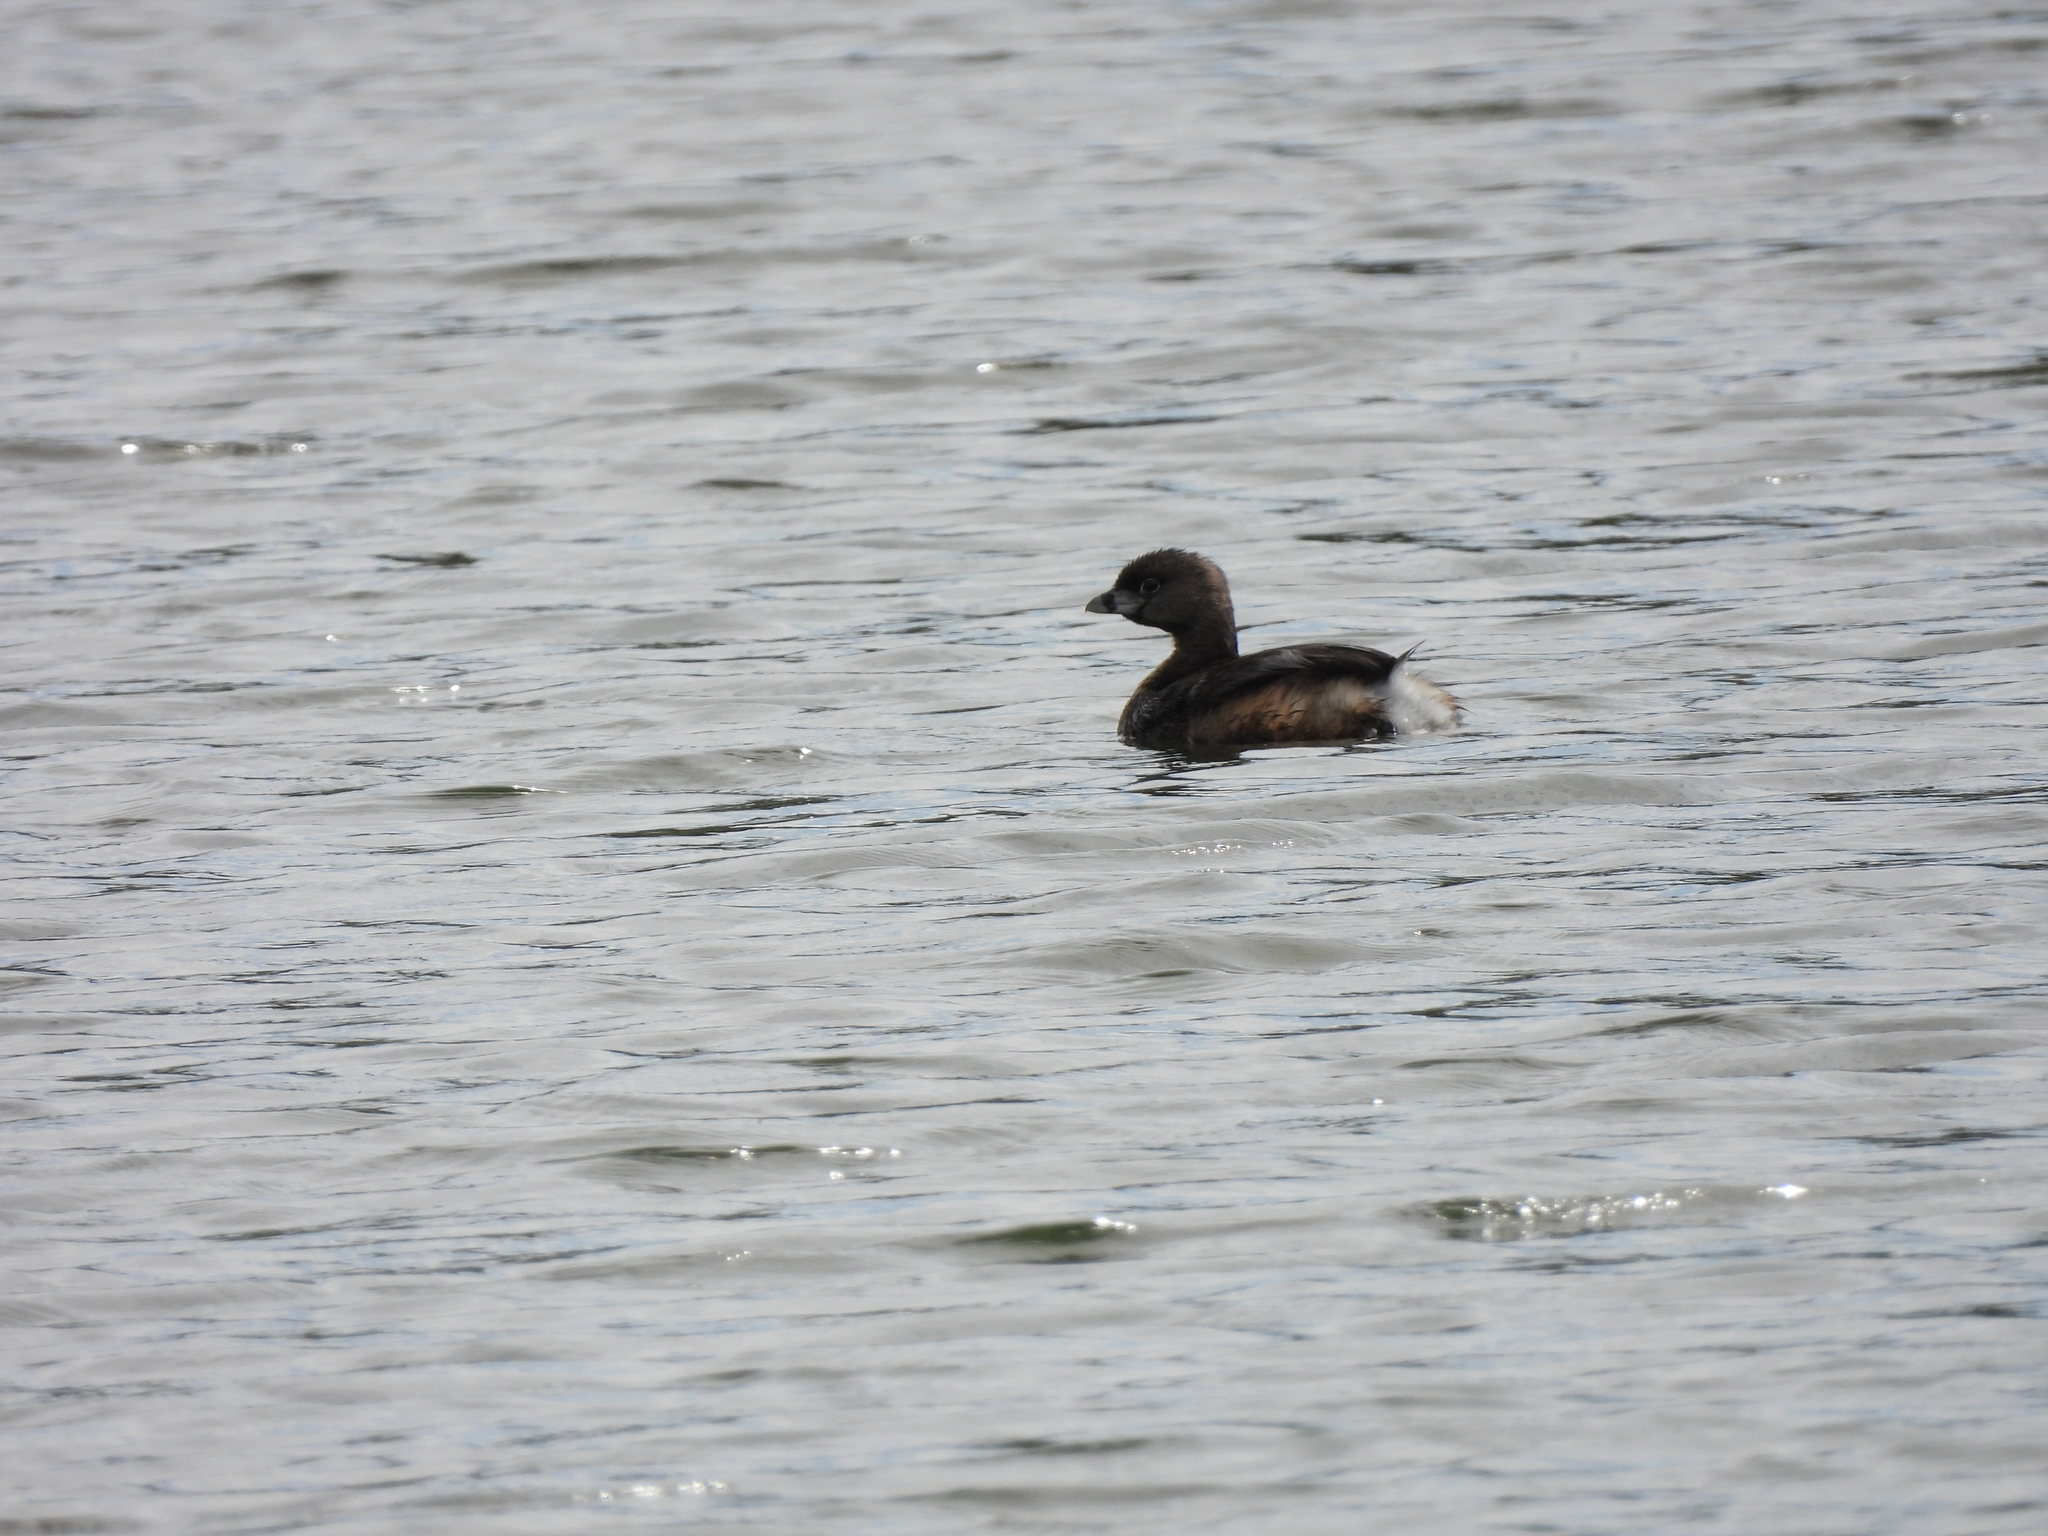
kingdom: Animalia
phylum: Chordata
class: Aves
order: Podicipediformes
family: Podicipedidae
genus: Podilymbus
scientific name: Podilymbus podiceps
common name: Pied-billed grebe
